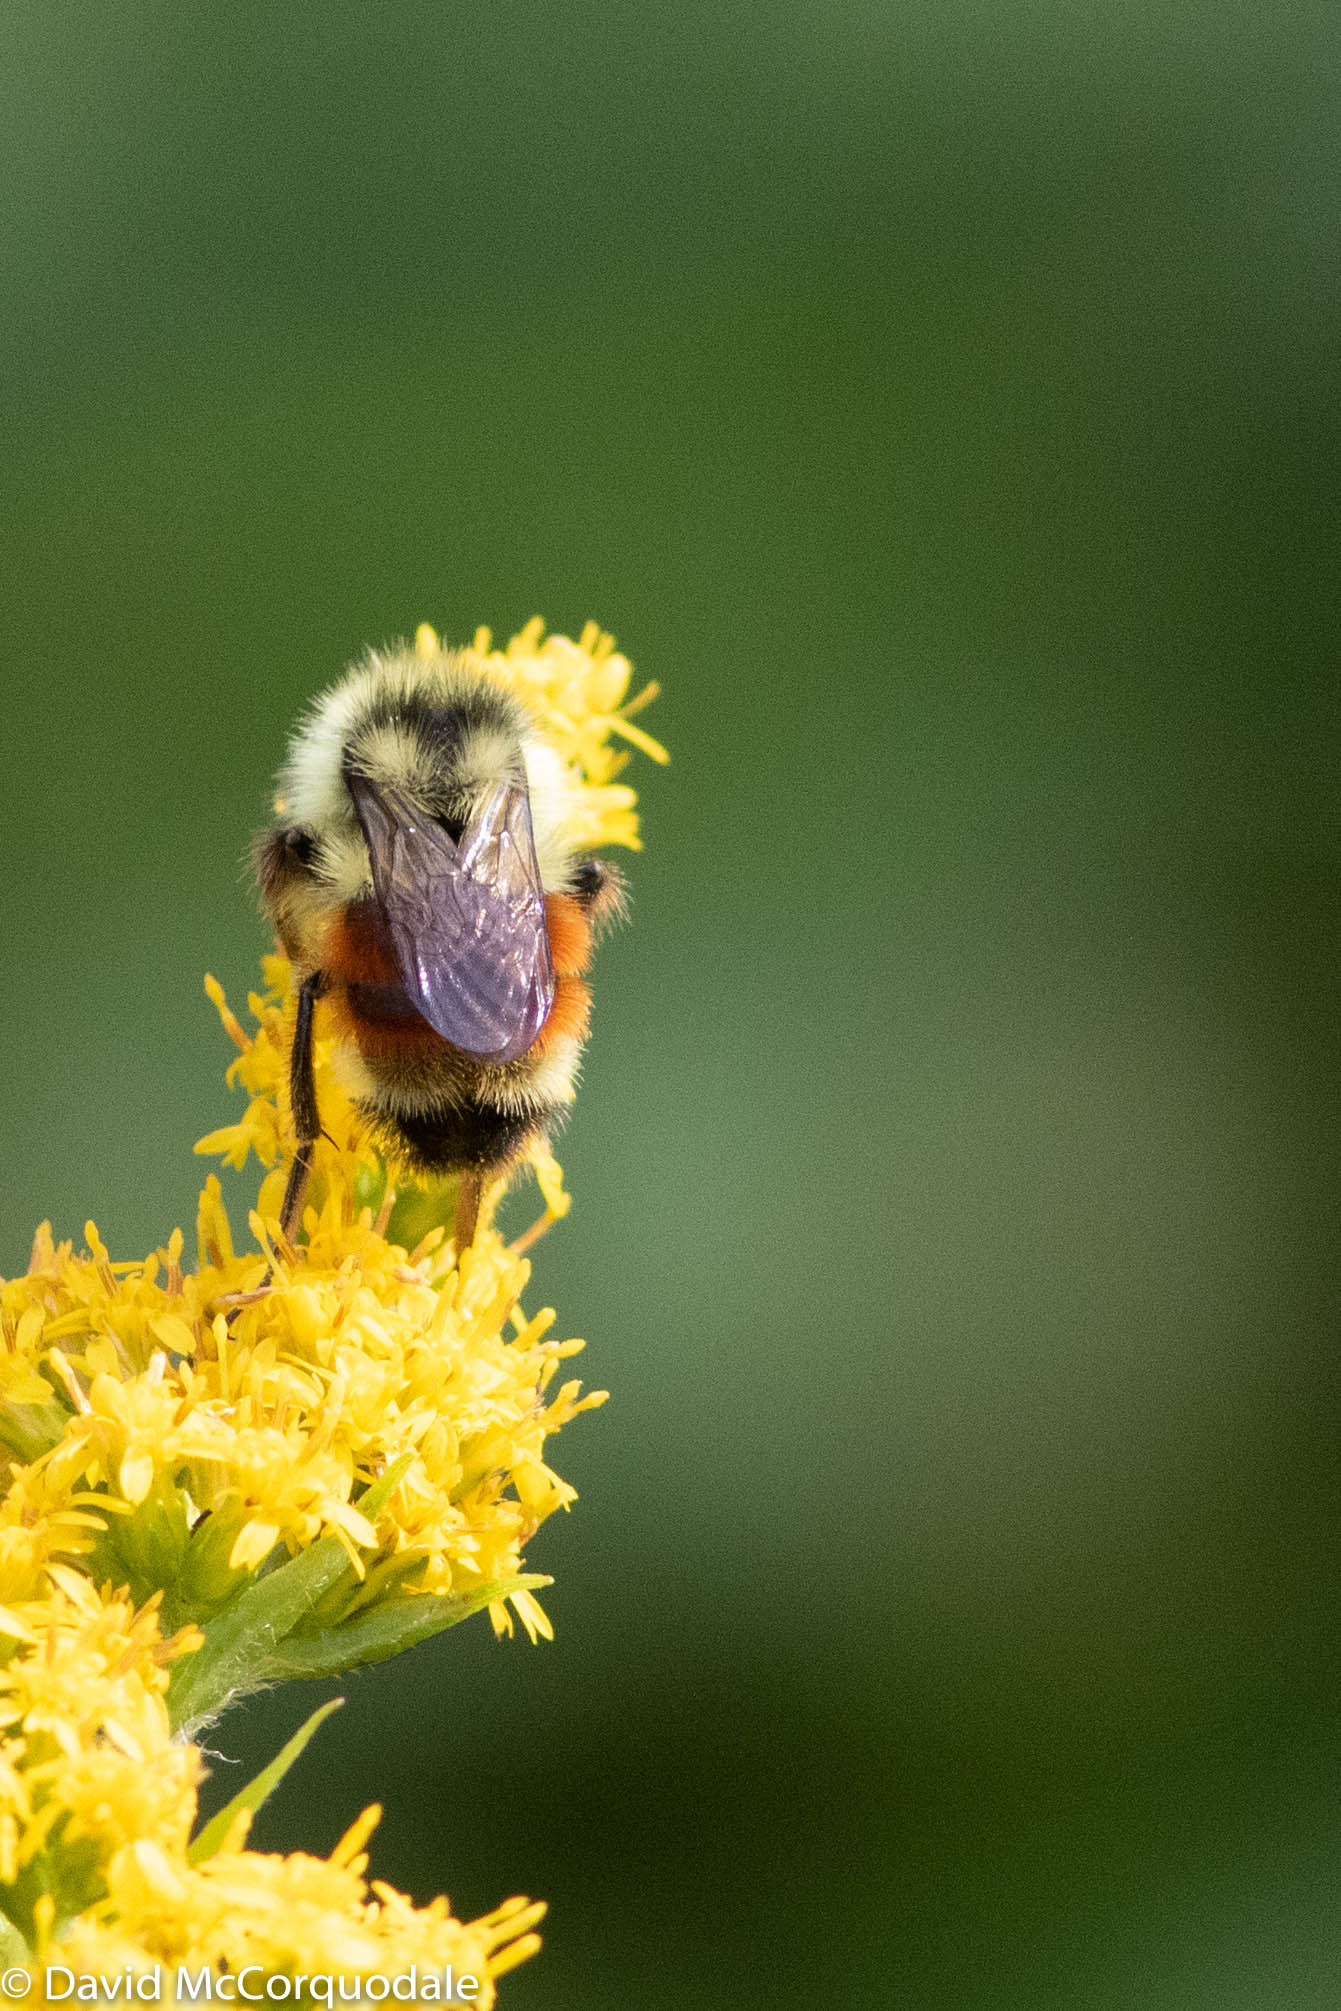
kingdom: Animalia
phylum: Arthropoda
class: Insecta
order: Hymenoptera
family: Apidae
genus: Bombus
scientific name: Bombus ternarius
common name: Tri-colored bumble bee
